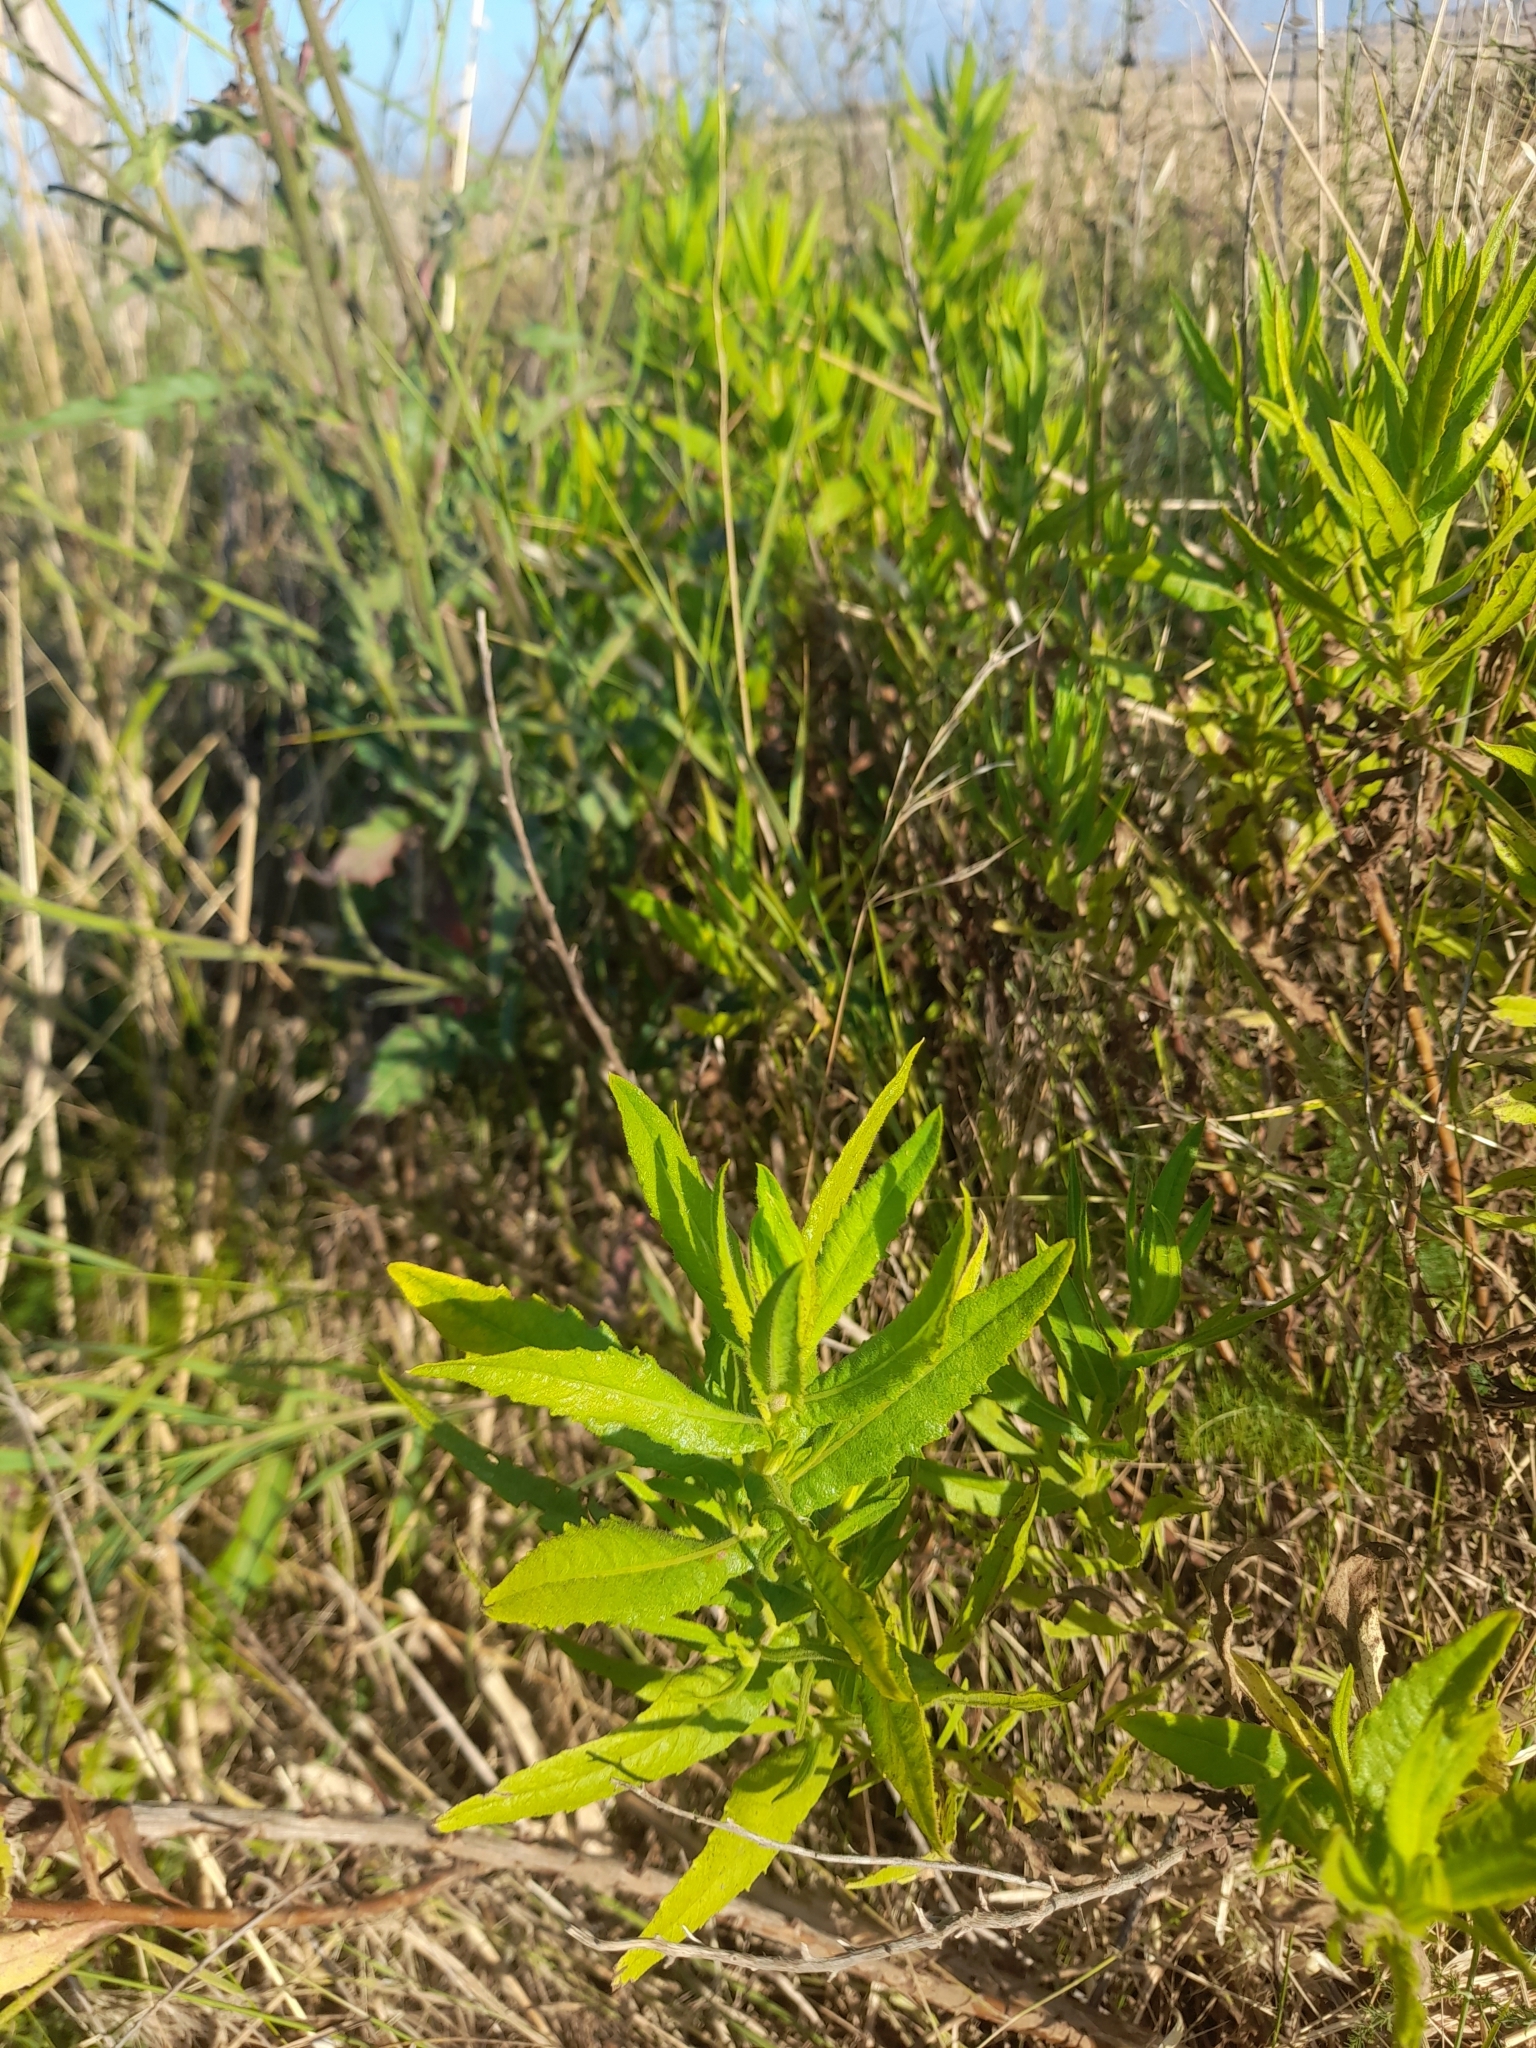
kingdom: Plantae
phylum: Tracheophyta
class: Magnoliopsida
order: Asterales
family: Asteraceae
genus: Dittrichia
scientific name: Dittrichia viscosa
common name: Woody fleabane
